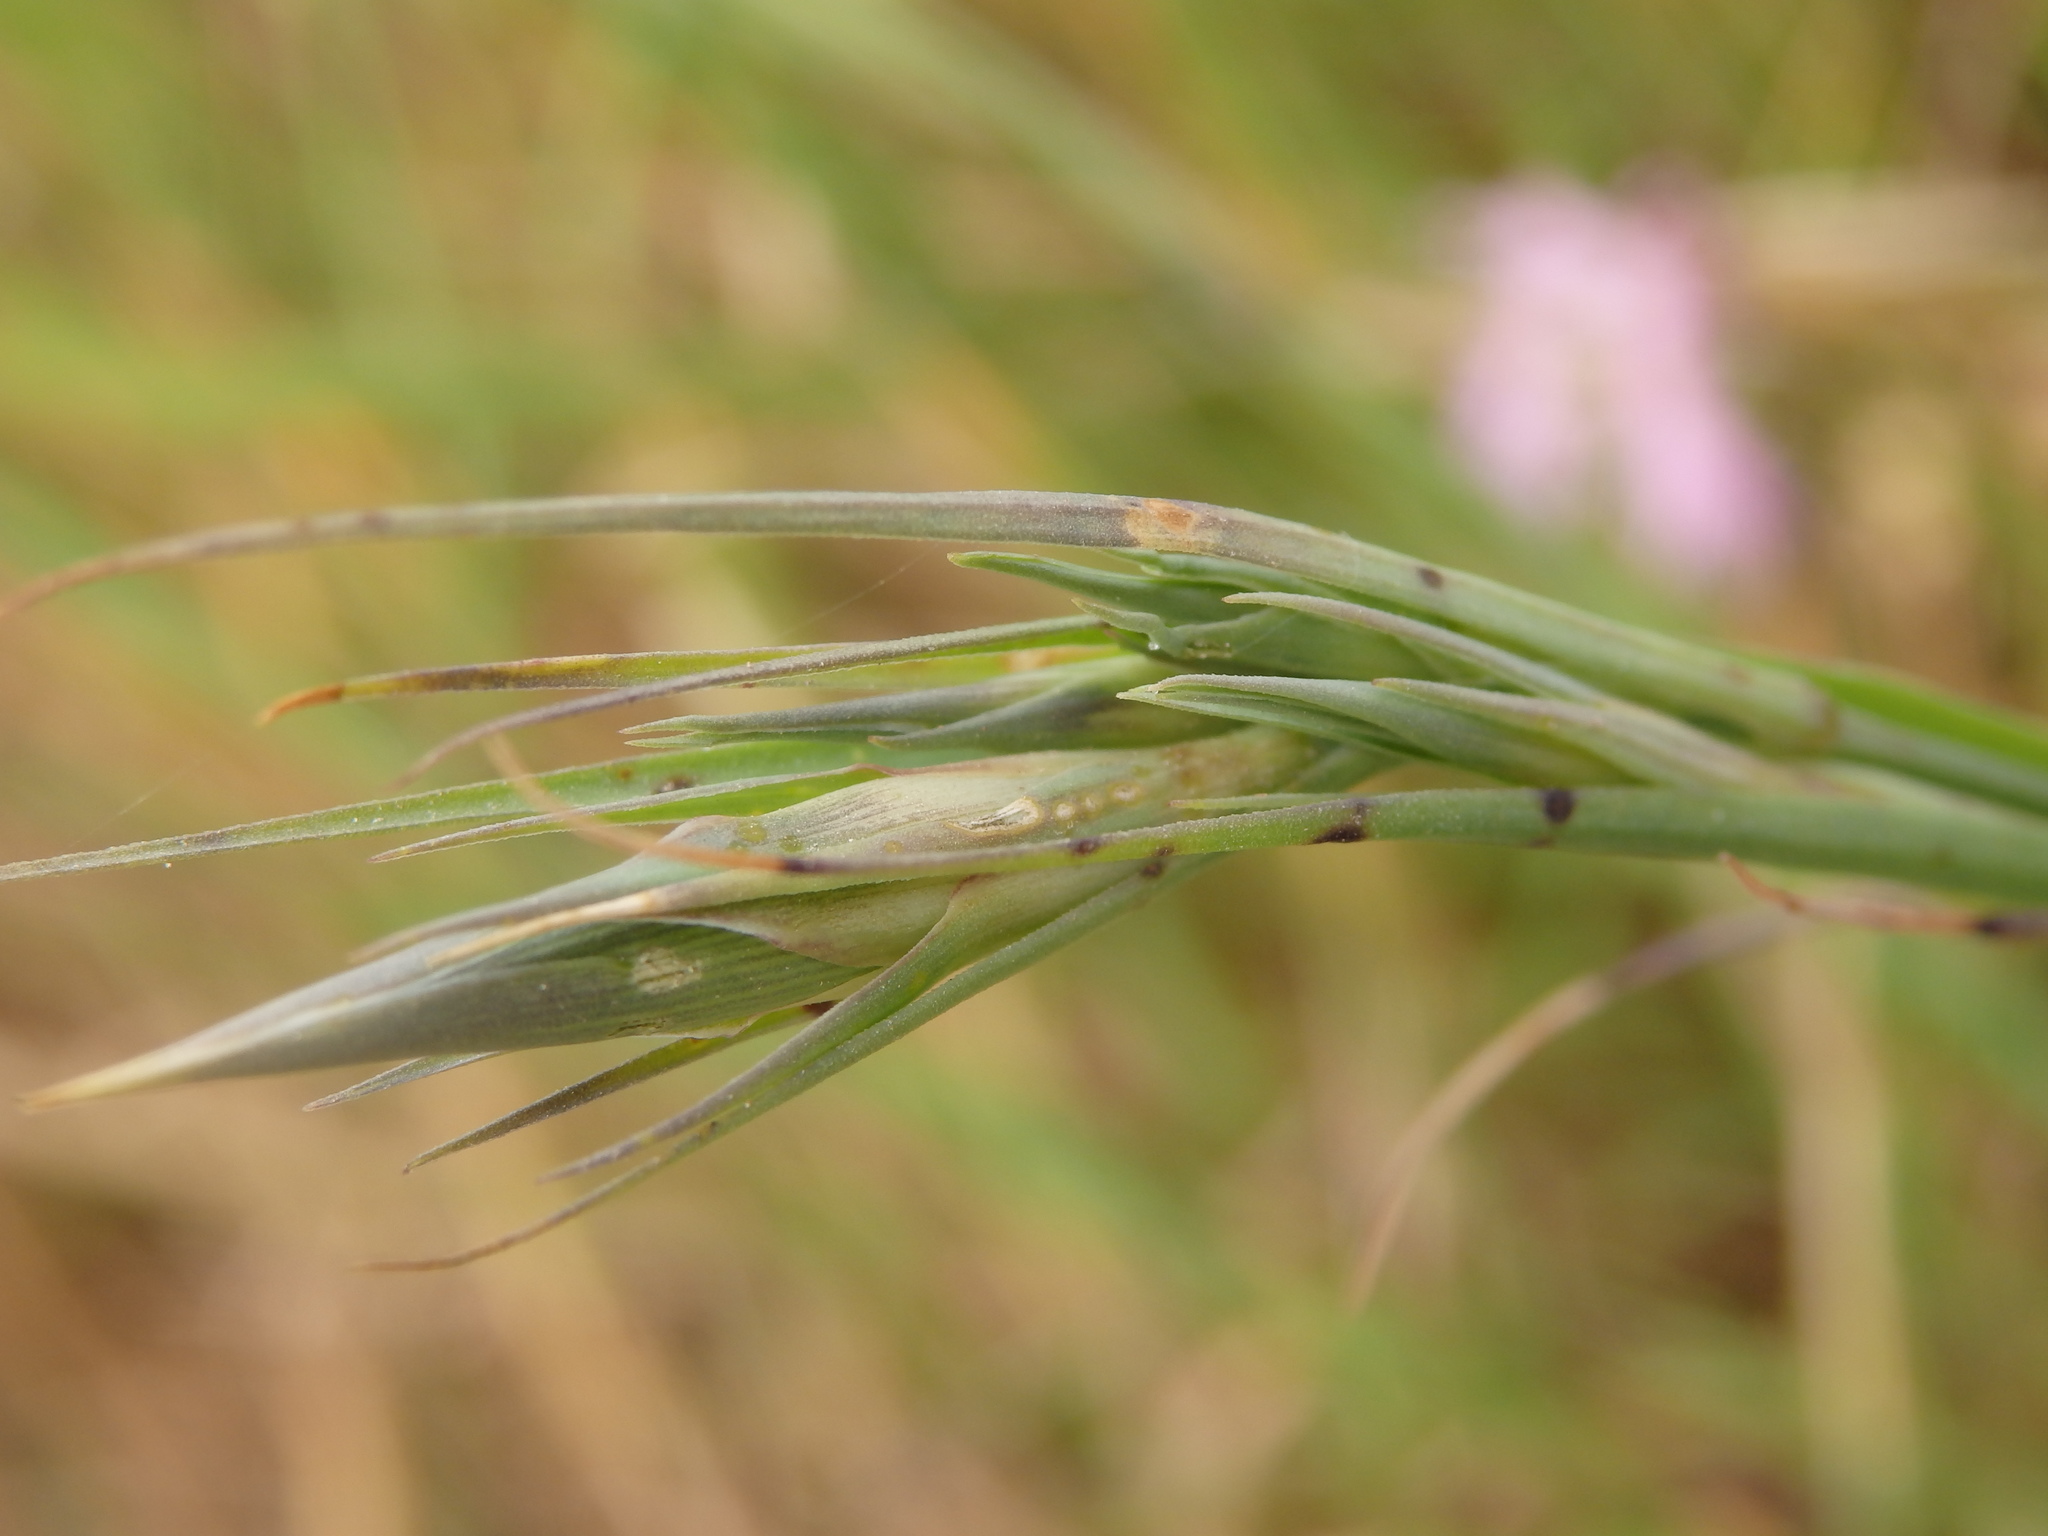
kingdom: Plantae
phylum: Tracheophyta
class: Magnoliopsida
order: Caryophyllales
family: Caryophyllaceae
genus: Dianthus
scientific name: Dianthus hyssopifolius
